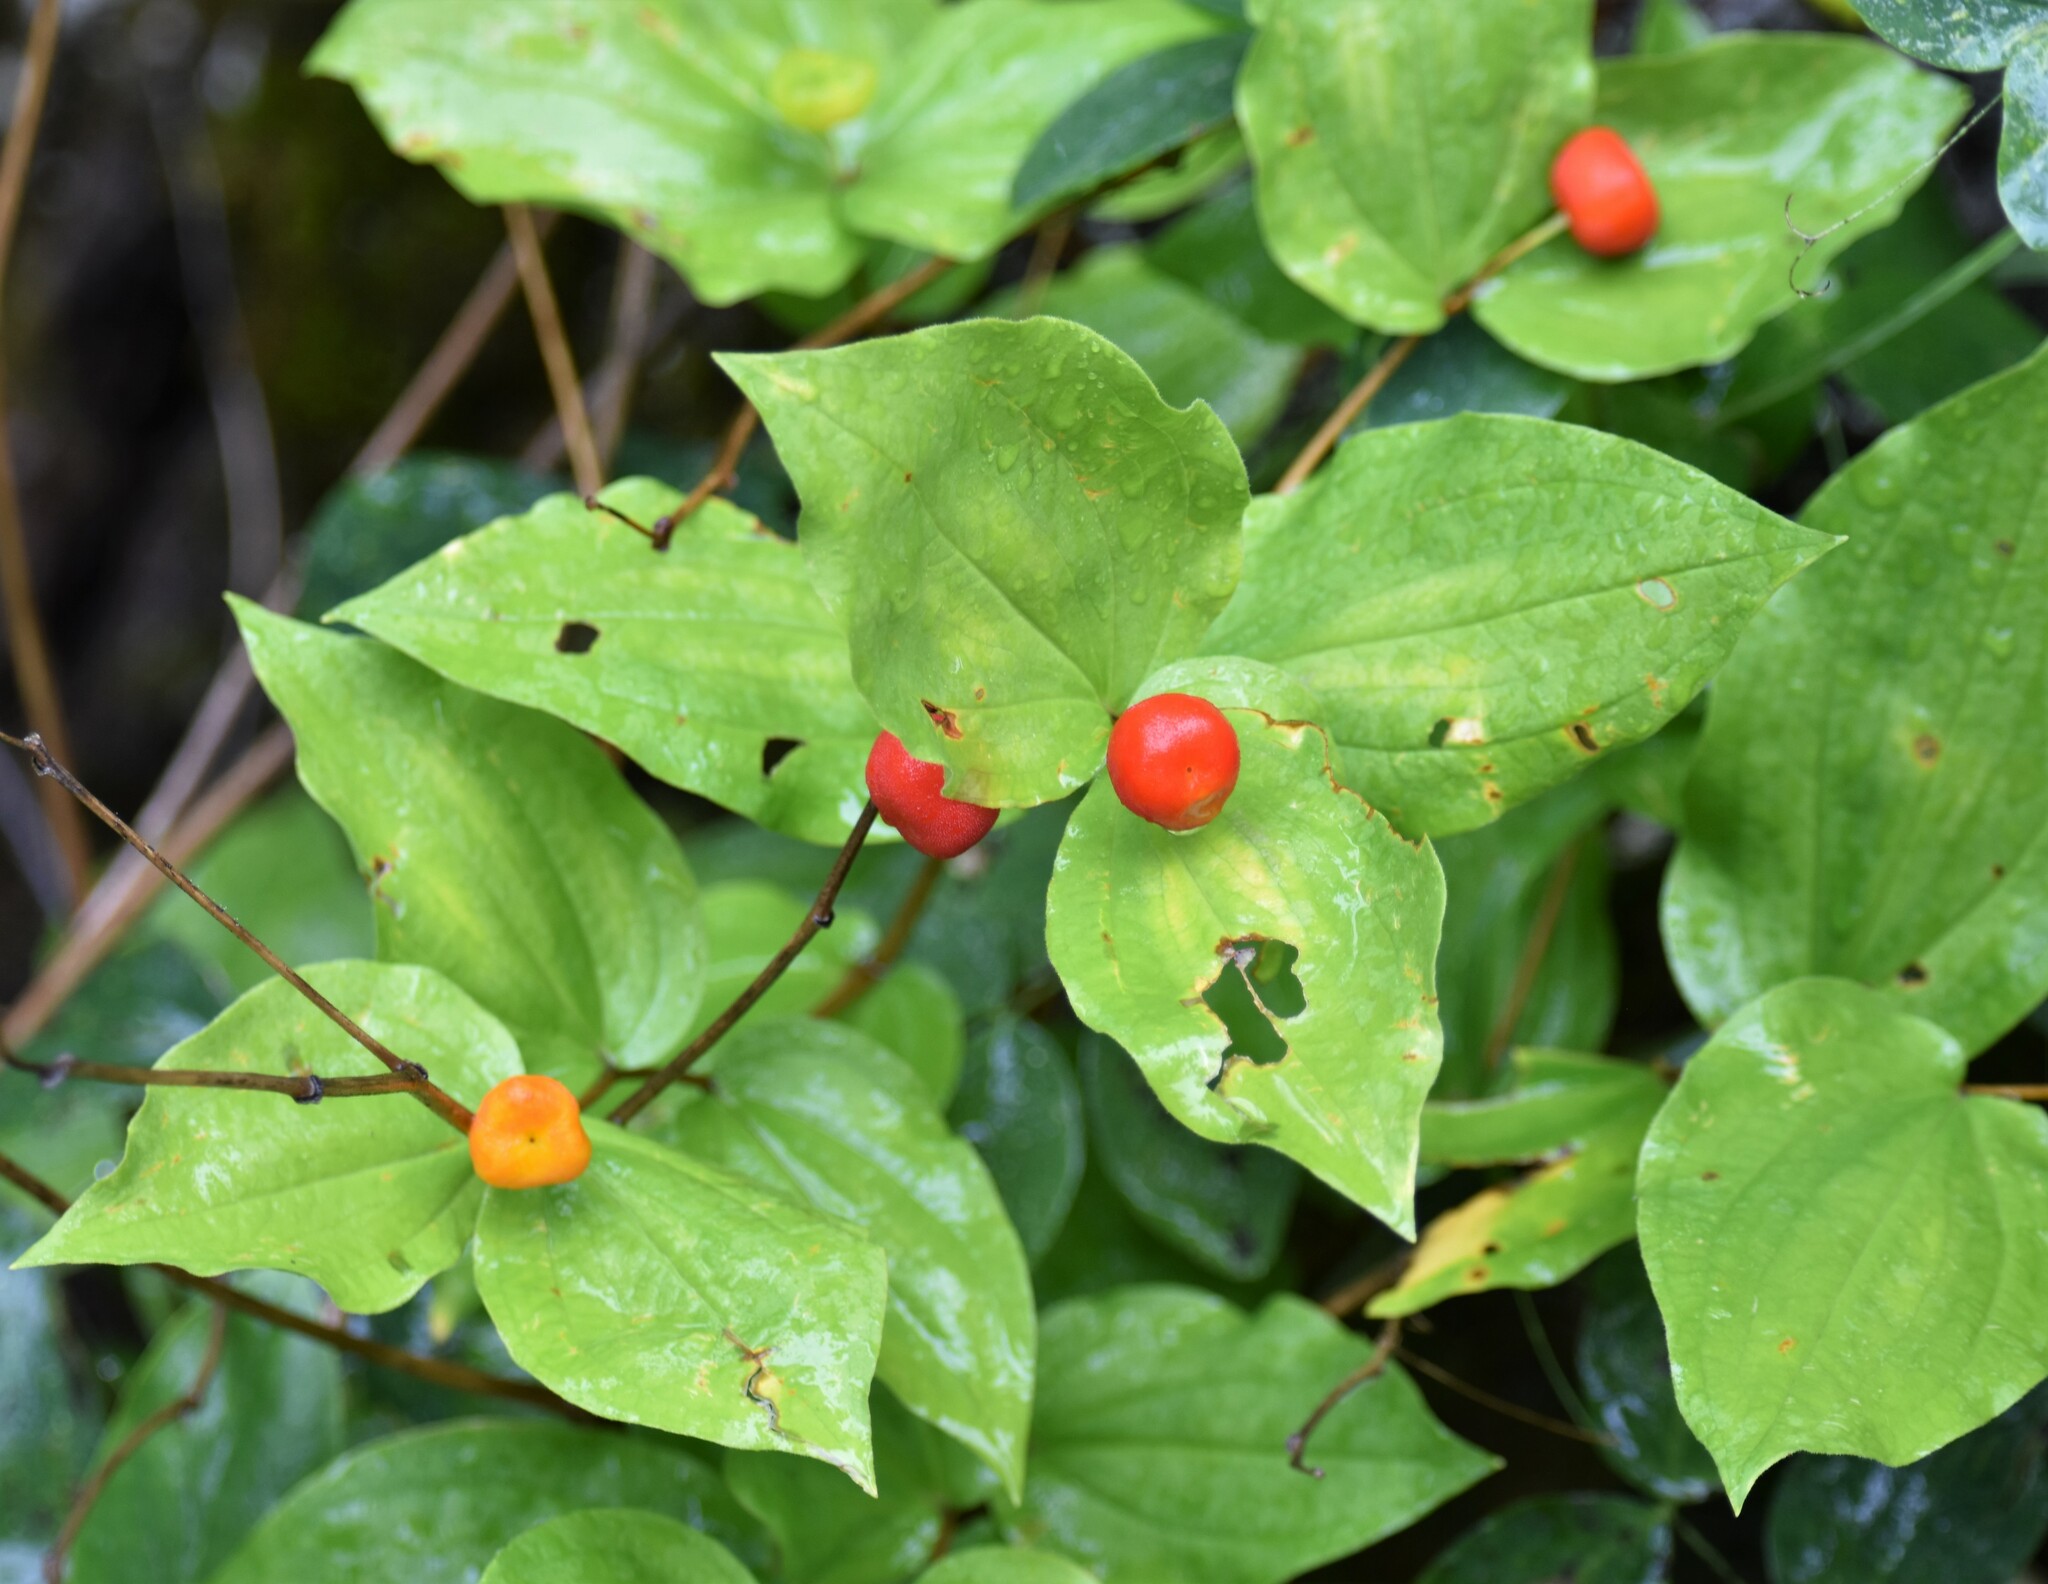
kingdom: Plantae
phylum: Tracheophyta
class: Liliopsida
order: Liliales
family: Liliaceae
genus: Prosartes
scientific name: Prosartes trachycarpa
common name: Rough-fruit fairy-bells
